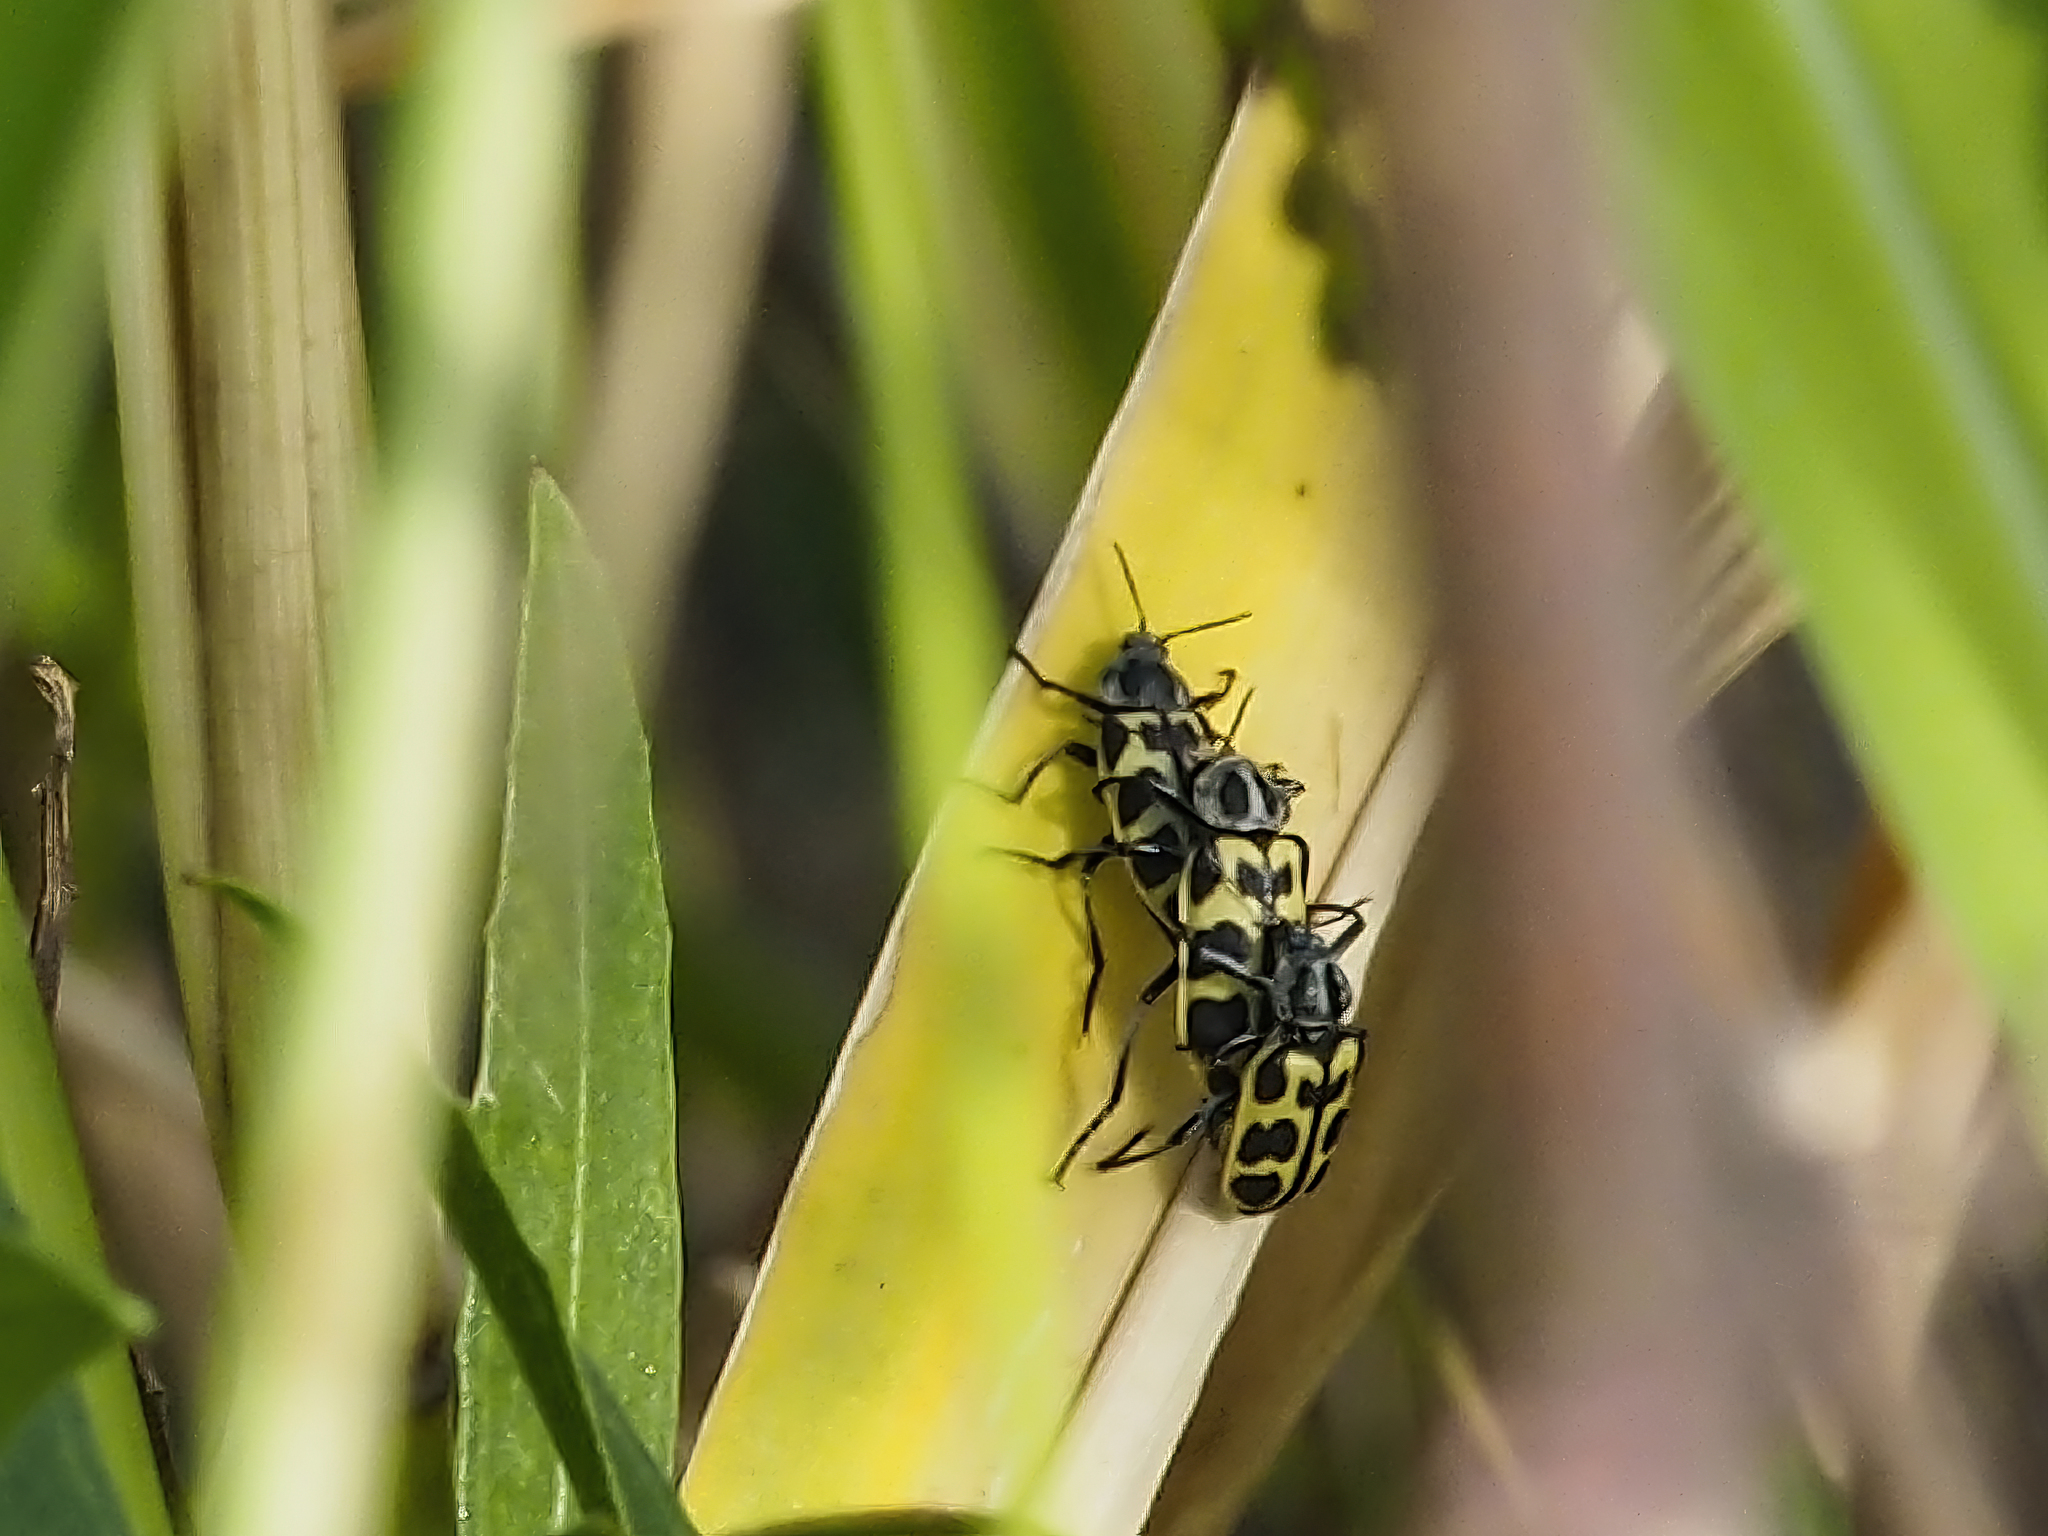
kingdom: Animalia
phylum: Arthropoda
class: Insecta
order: Coleoptera
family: Melyridae
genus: Astylus
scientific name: Astylus atromaculatus
